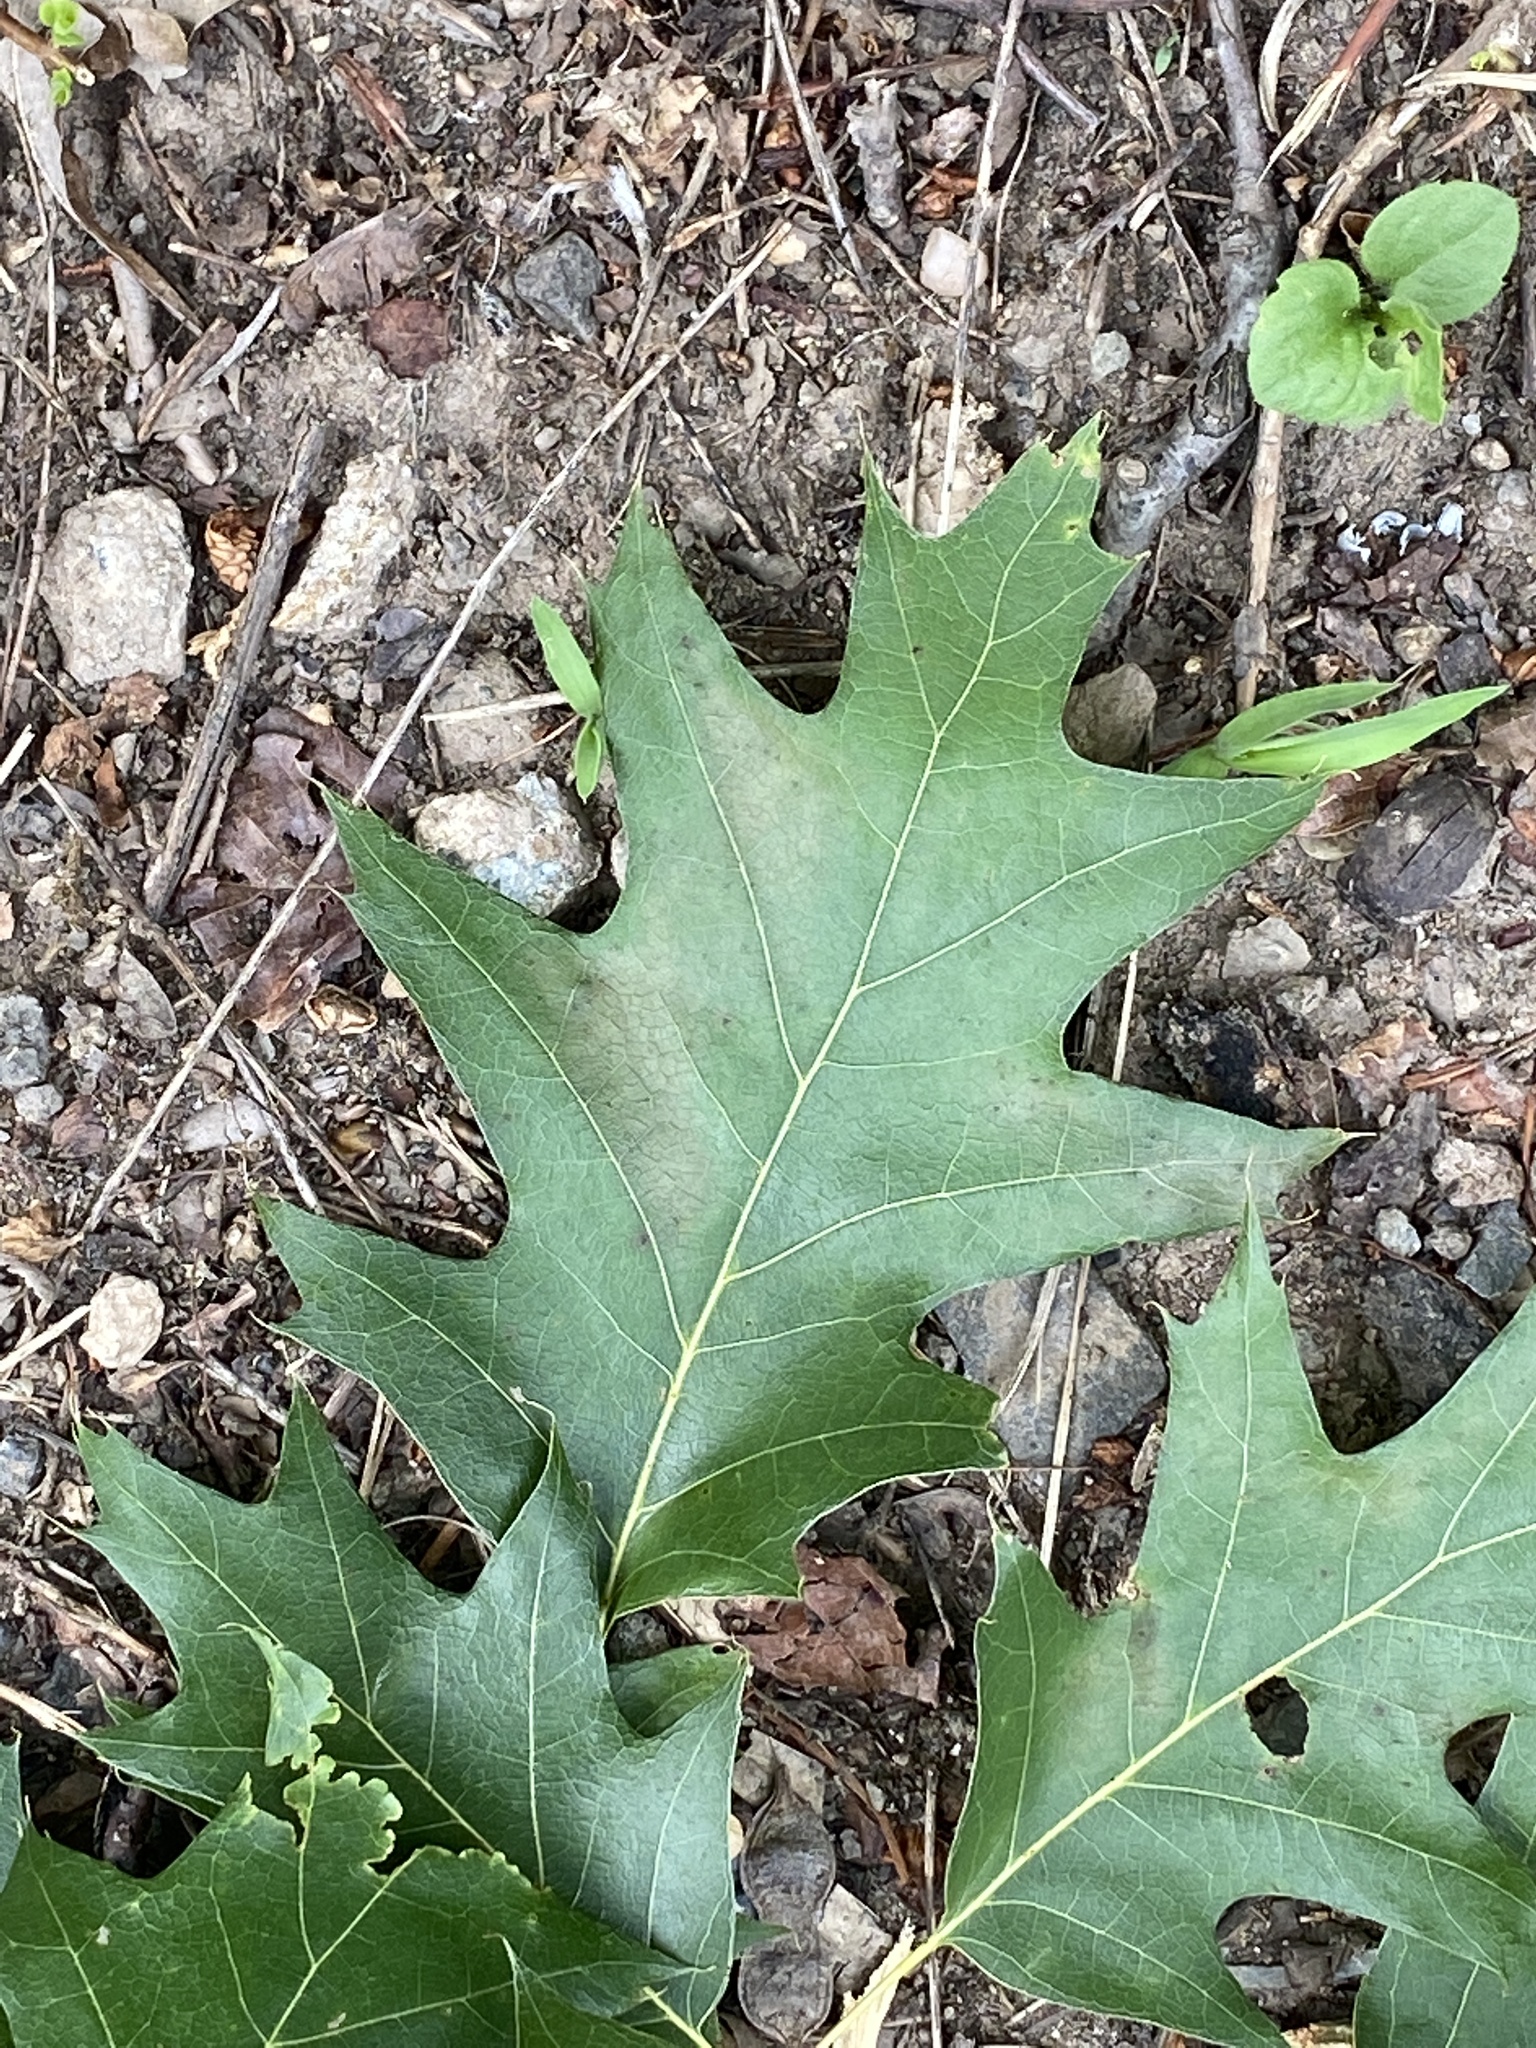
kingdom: Plantae
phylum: Tracheophyta
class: Magnoliopsida
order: Fagales
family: Fagaceae
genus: Quercus
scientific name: Quercus rubra
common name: Red oak
